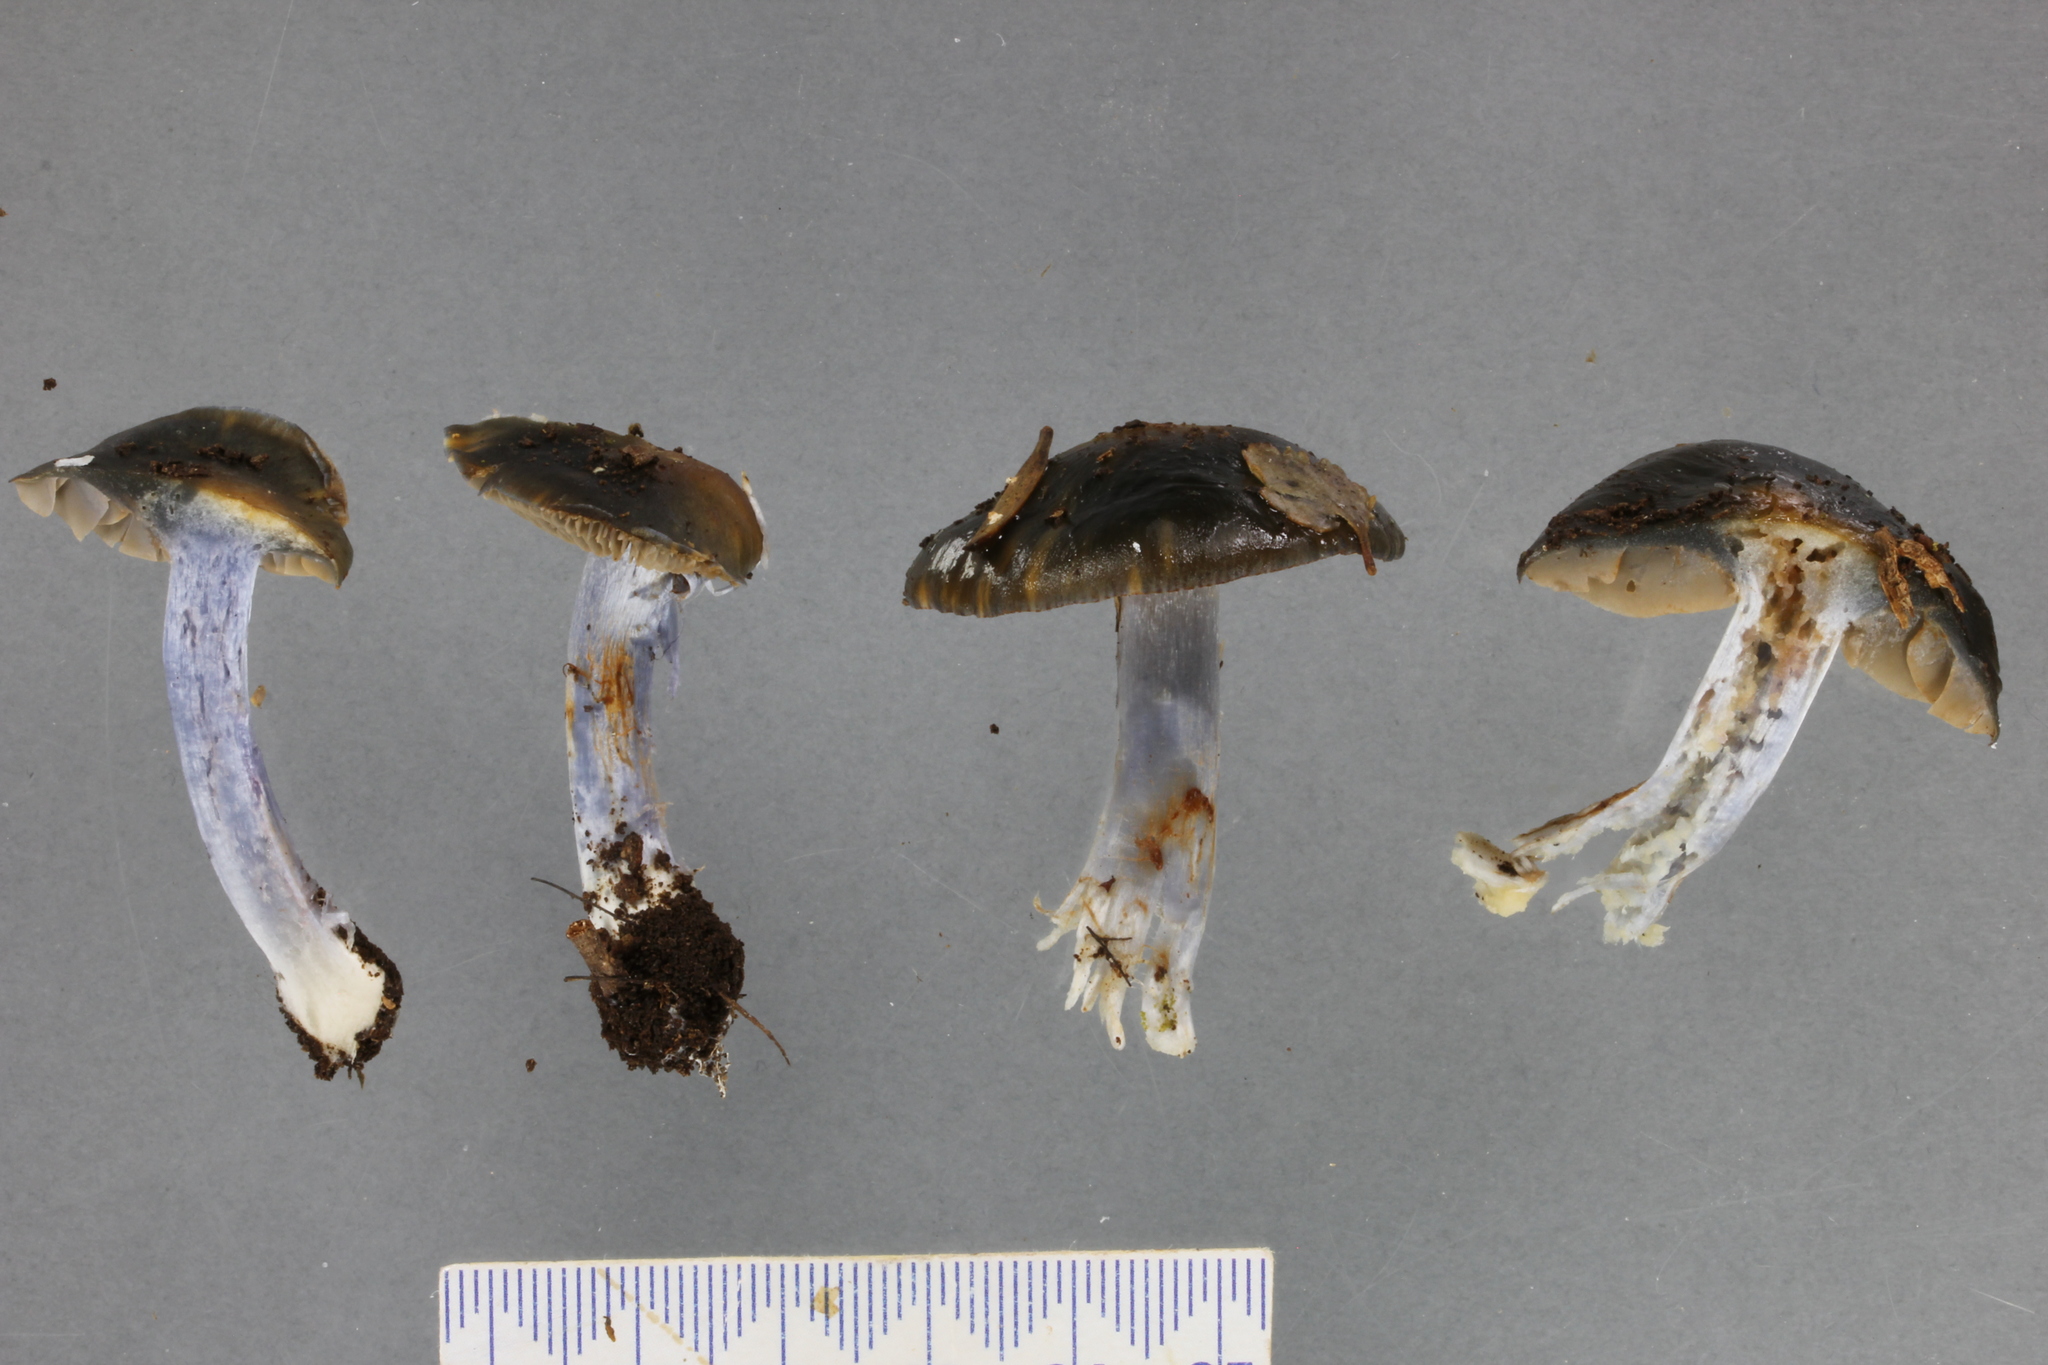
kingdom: Fungi
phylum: Basidiomycota
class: Agaricomycetes
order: Agaricales
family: Cortinariaceae
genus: Thaxterogaster
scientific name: Thaxterogaster turcopes
